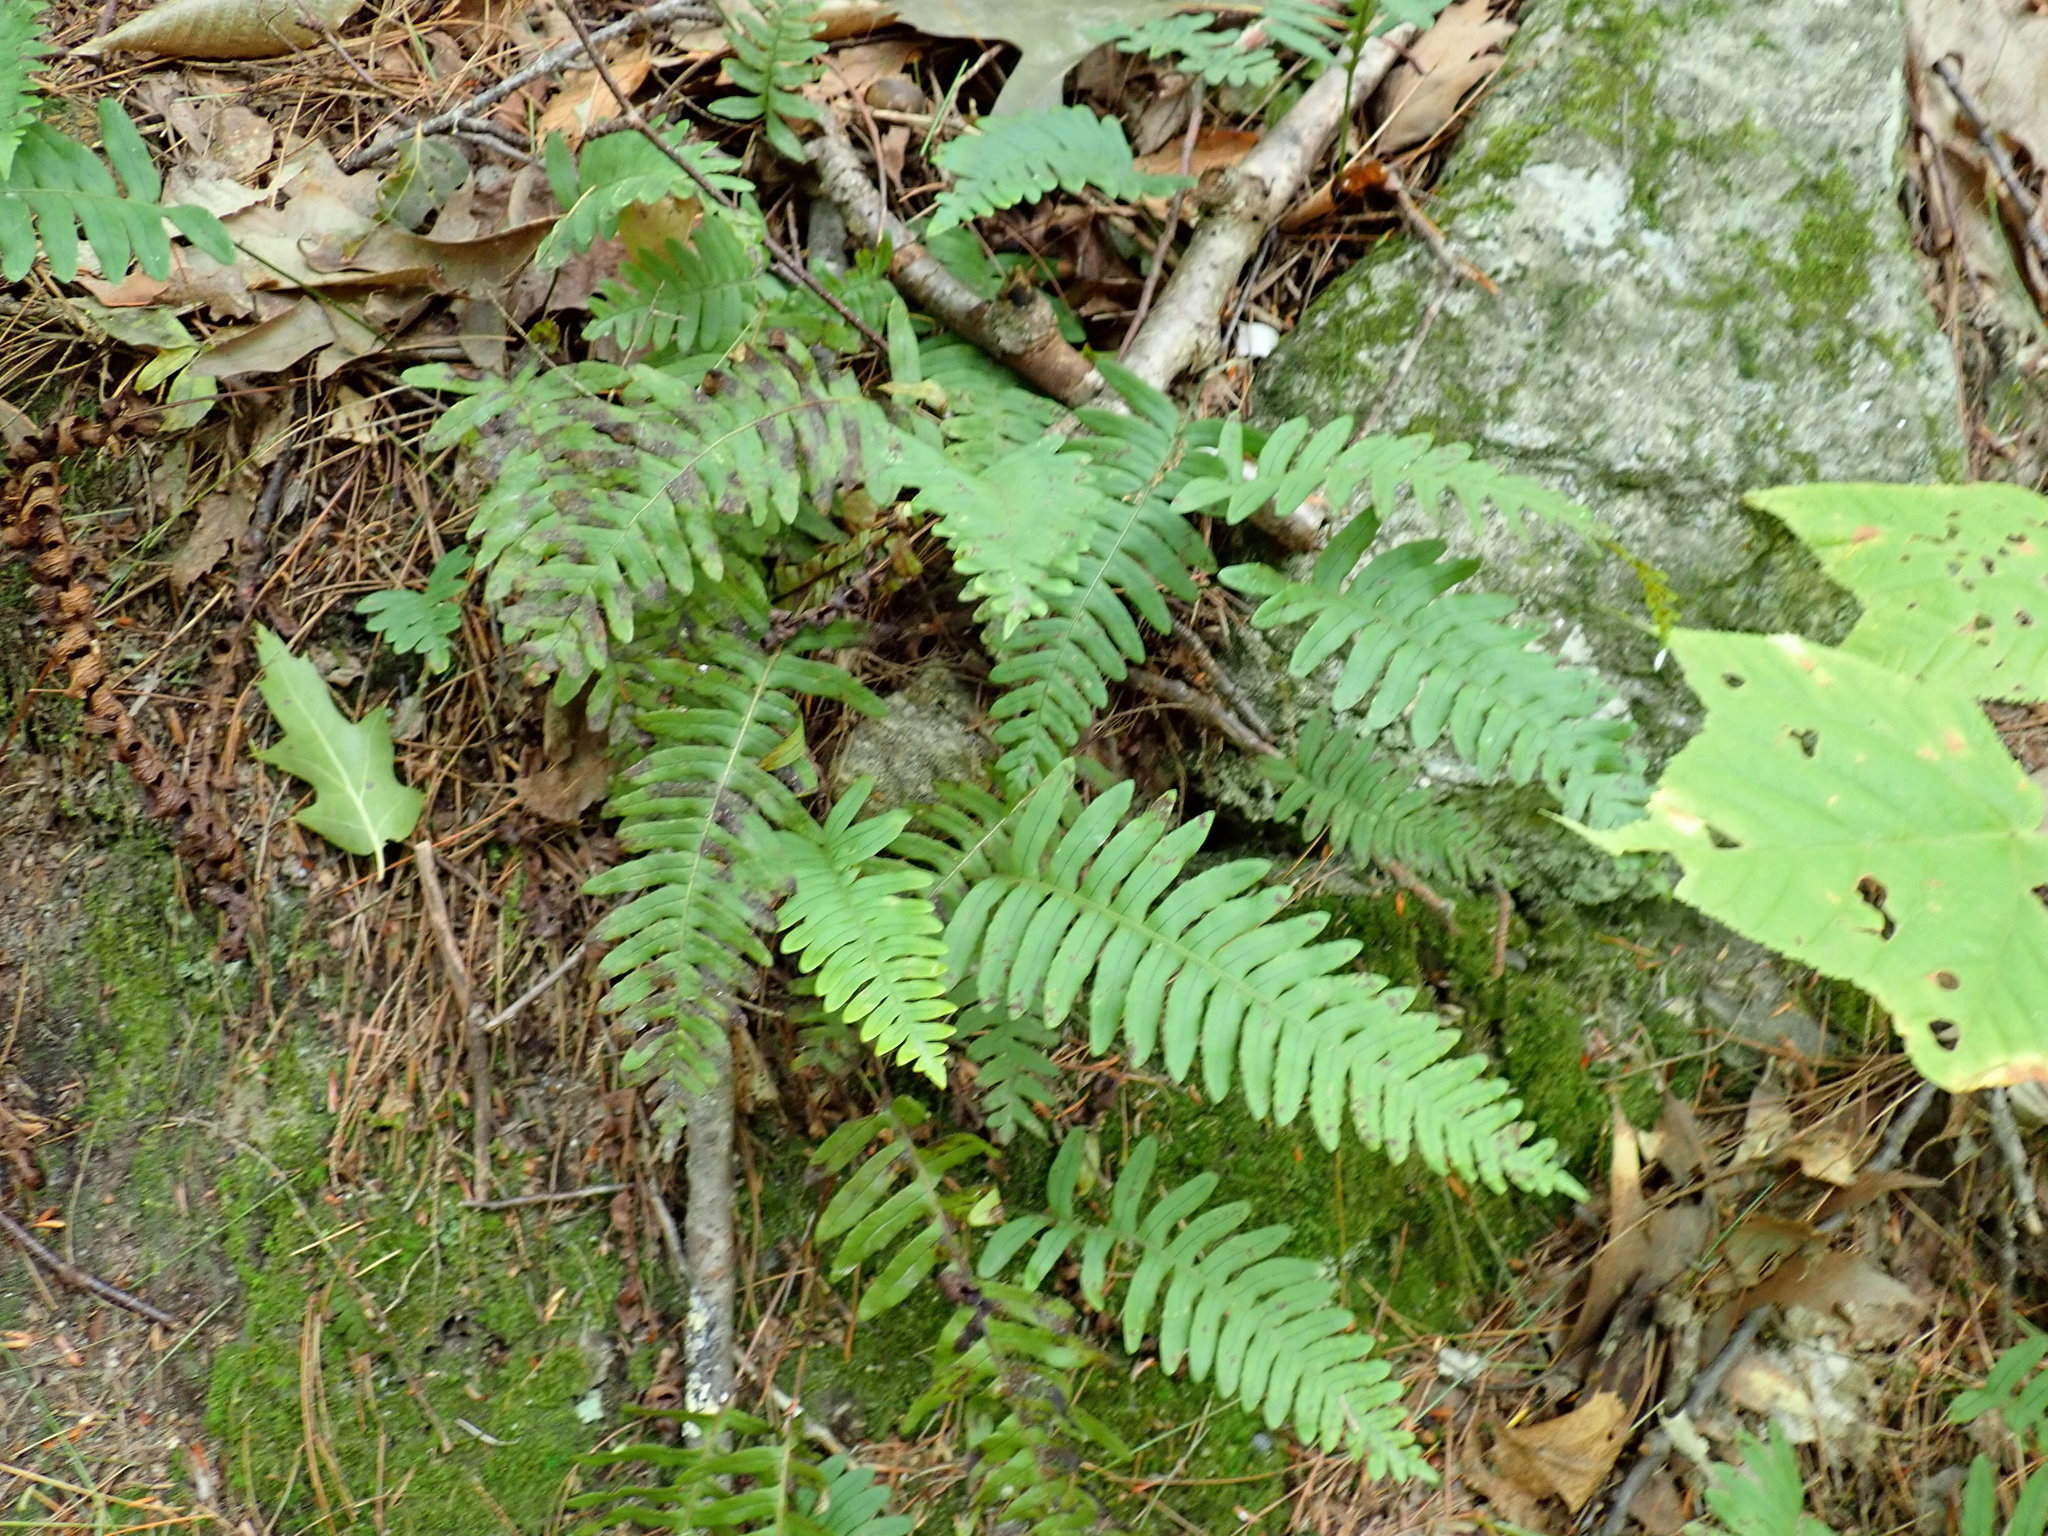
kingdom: Plantae
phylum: Tracheophyta
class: Polypodiopsida
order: Polypodiales
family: Polypodiaceae
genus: Polypodium
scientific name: Polypodium
